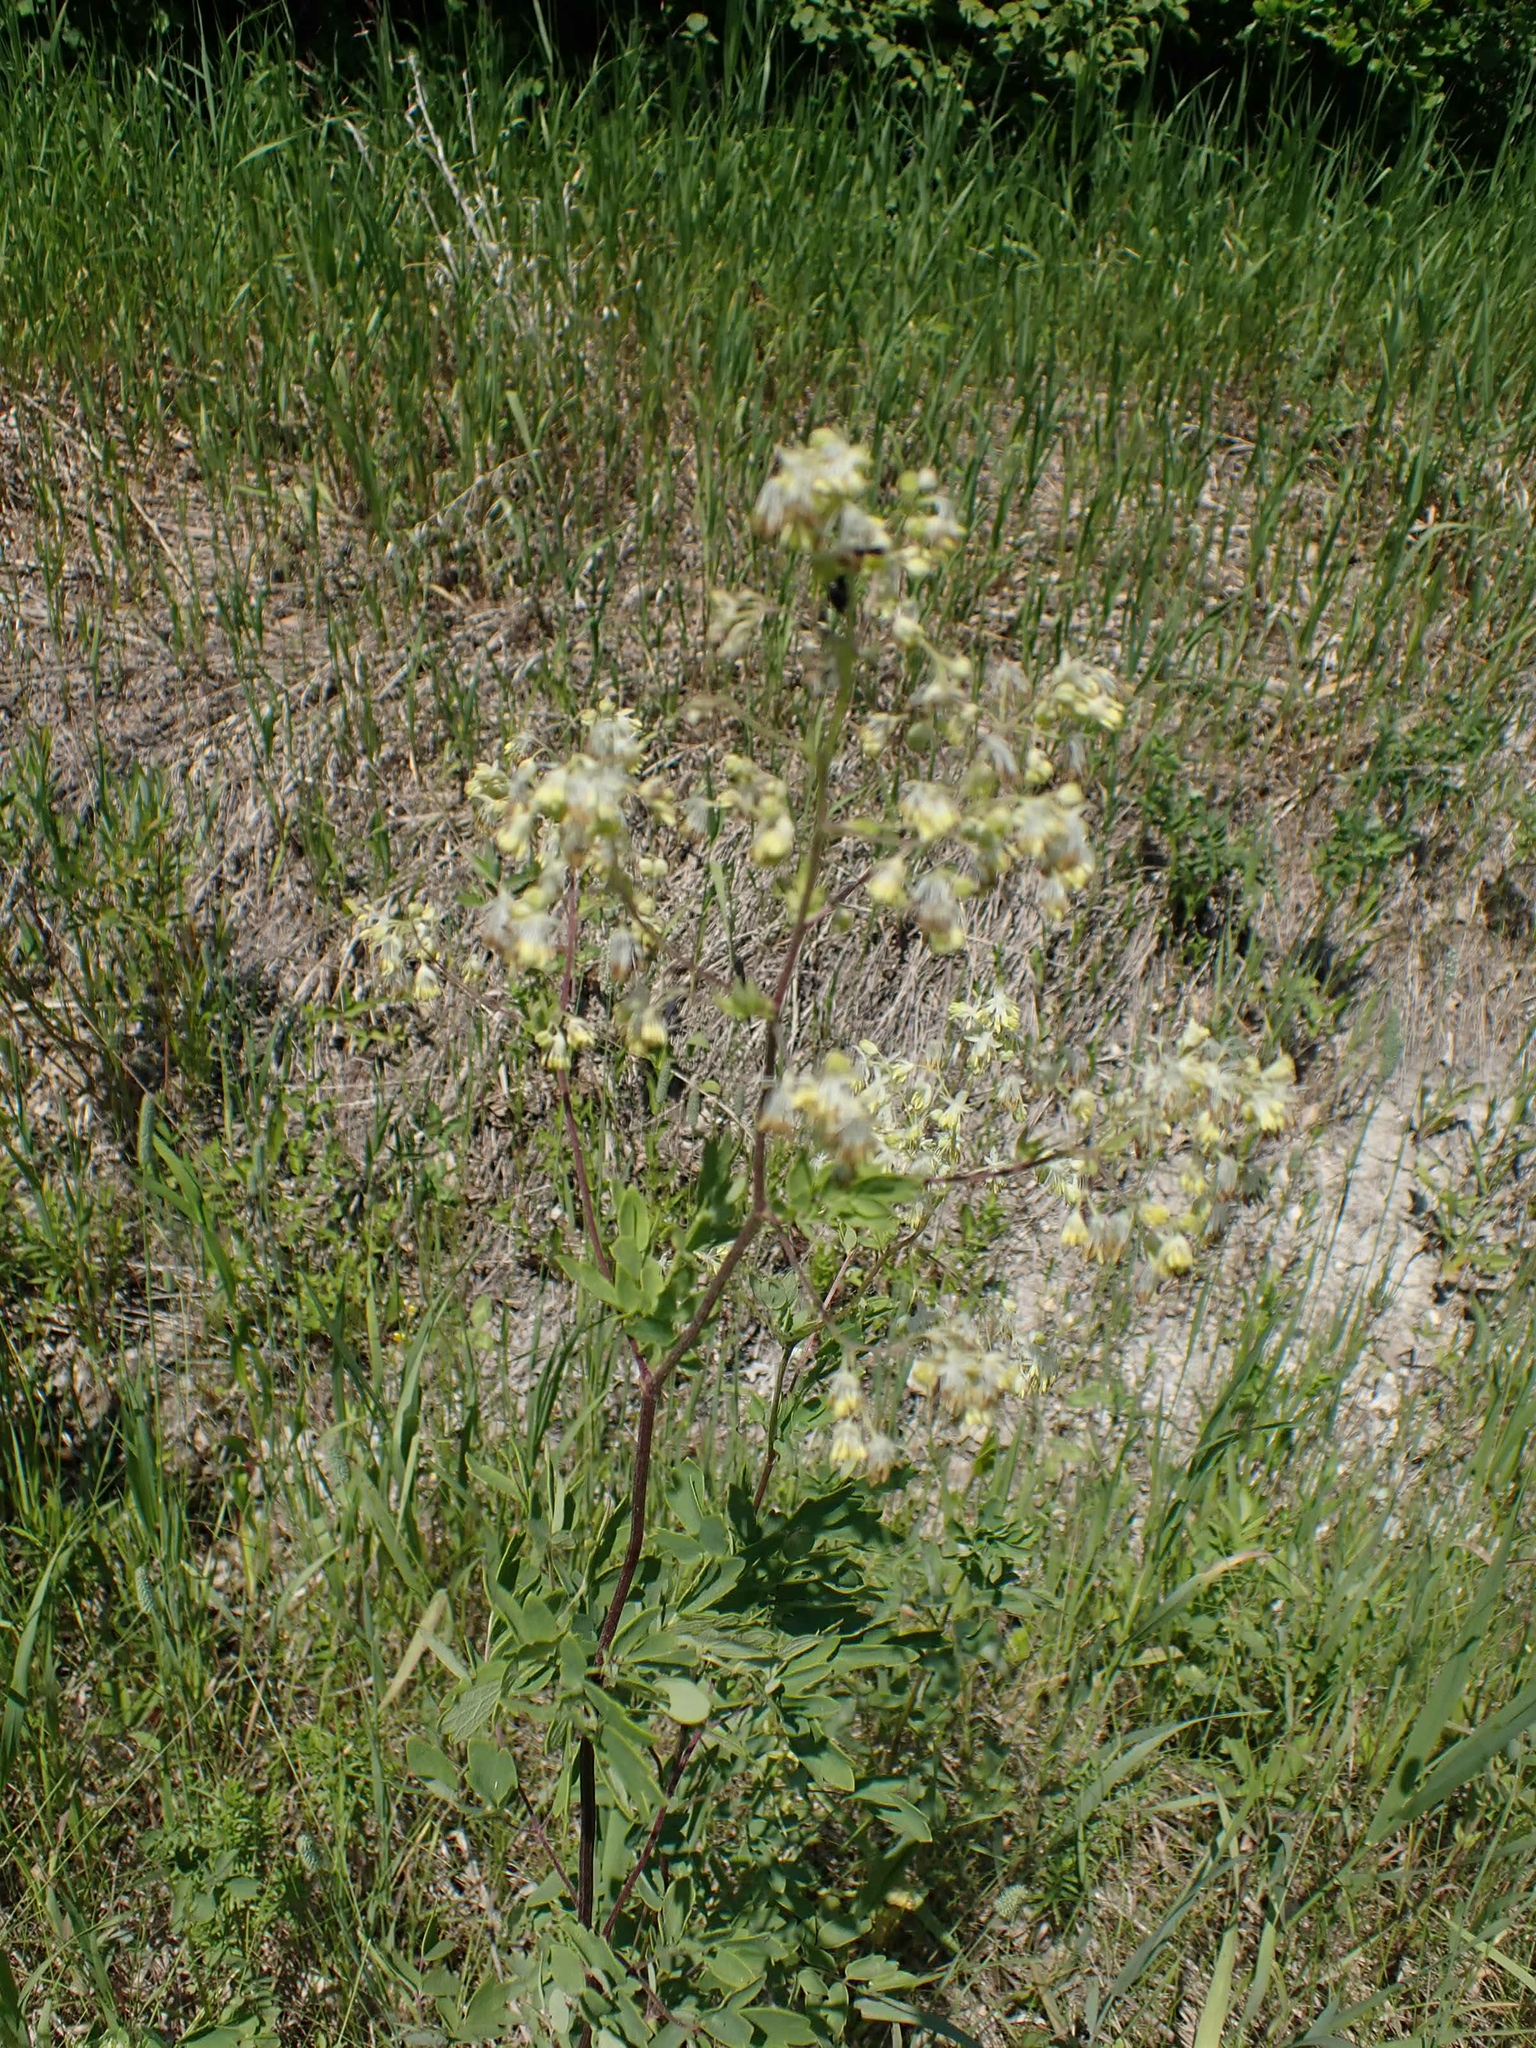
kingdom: Plantae
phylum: Tracheophyta
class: Magnoliopsida
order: Ranunculales
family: Ranunculaceae
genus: Thalictrum
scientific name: Thalictrum dasycarpum
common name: Purple meadow-rue
